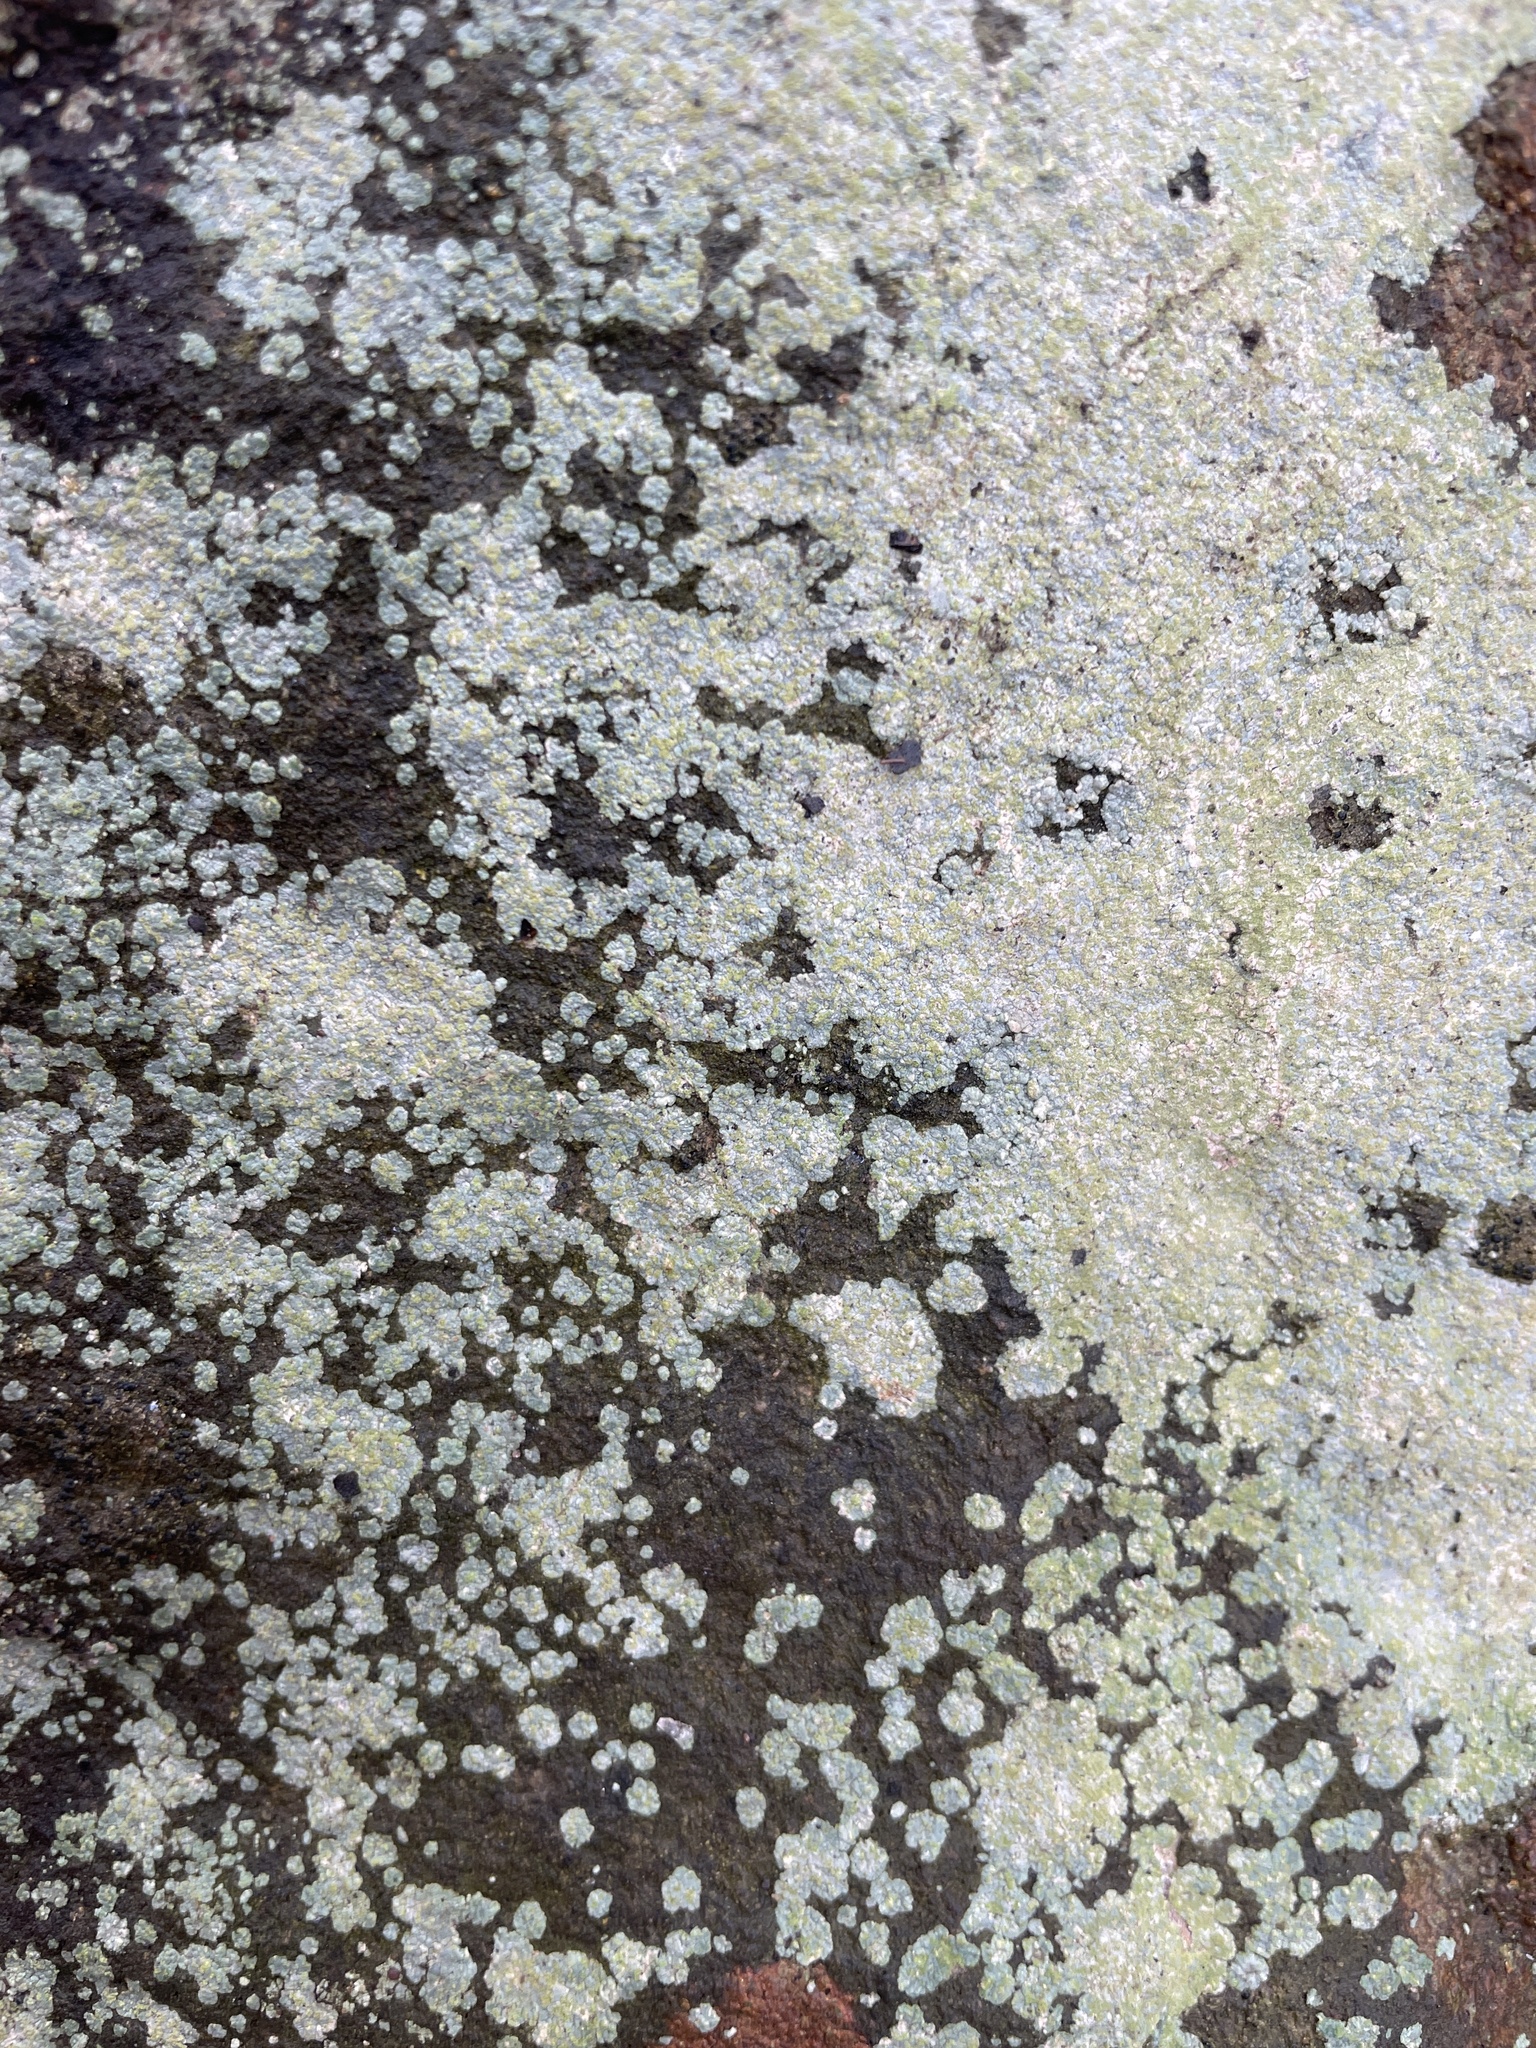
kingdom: Fungi
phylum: Ascomycota
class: Lecanoromycetes
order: Baeomycetales
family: Trapeliaceae
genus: Kleopowiella
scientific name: Kleopowiella placodioides
